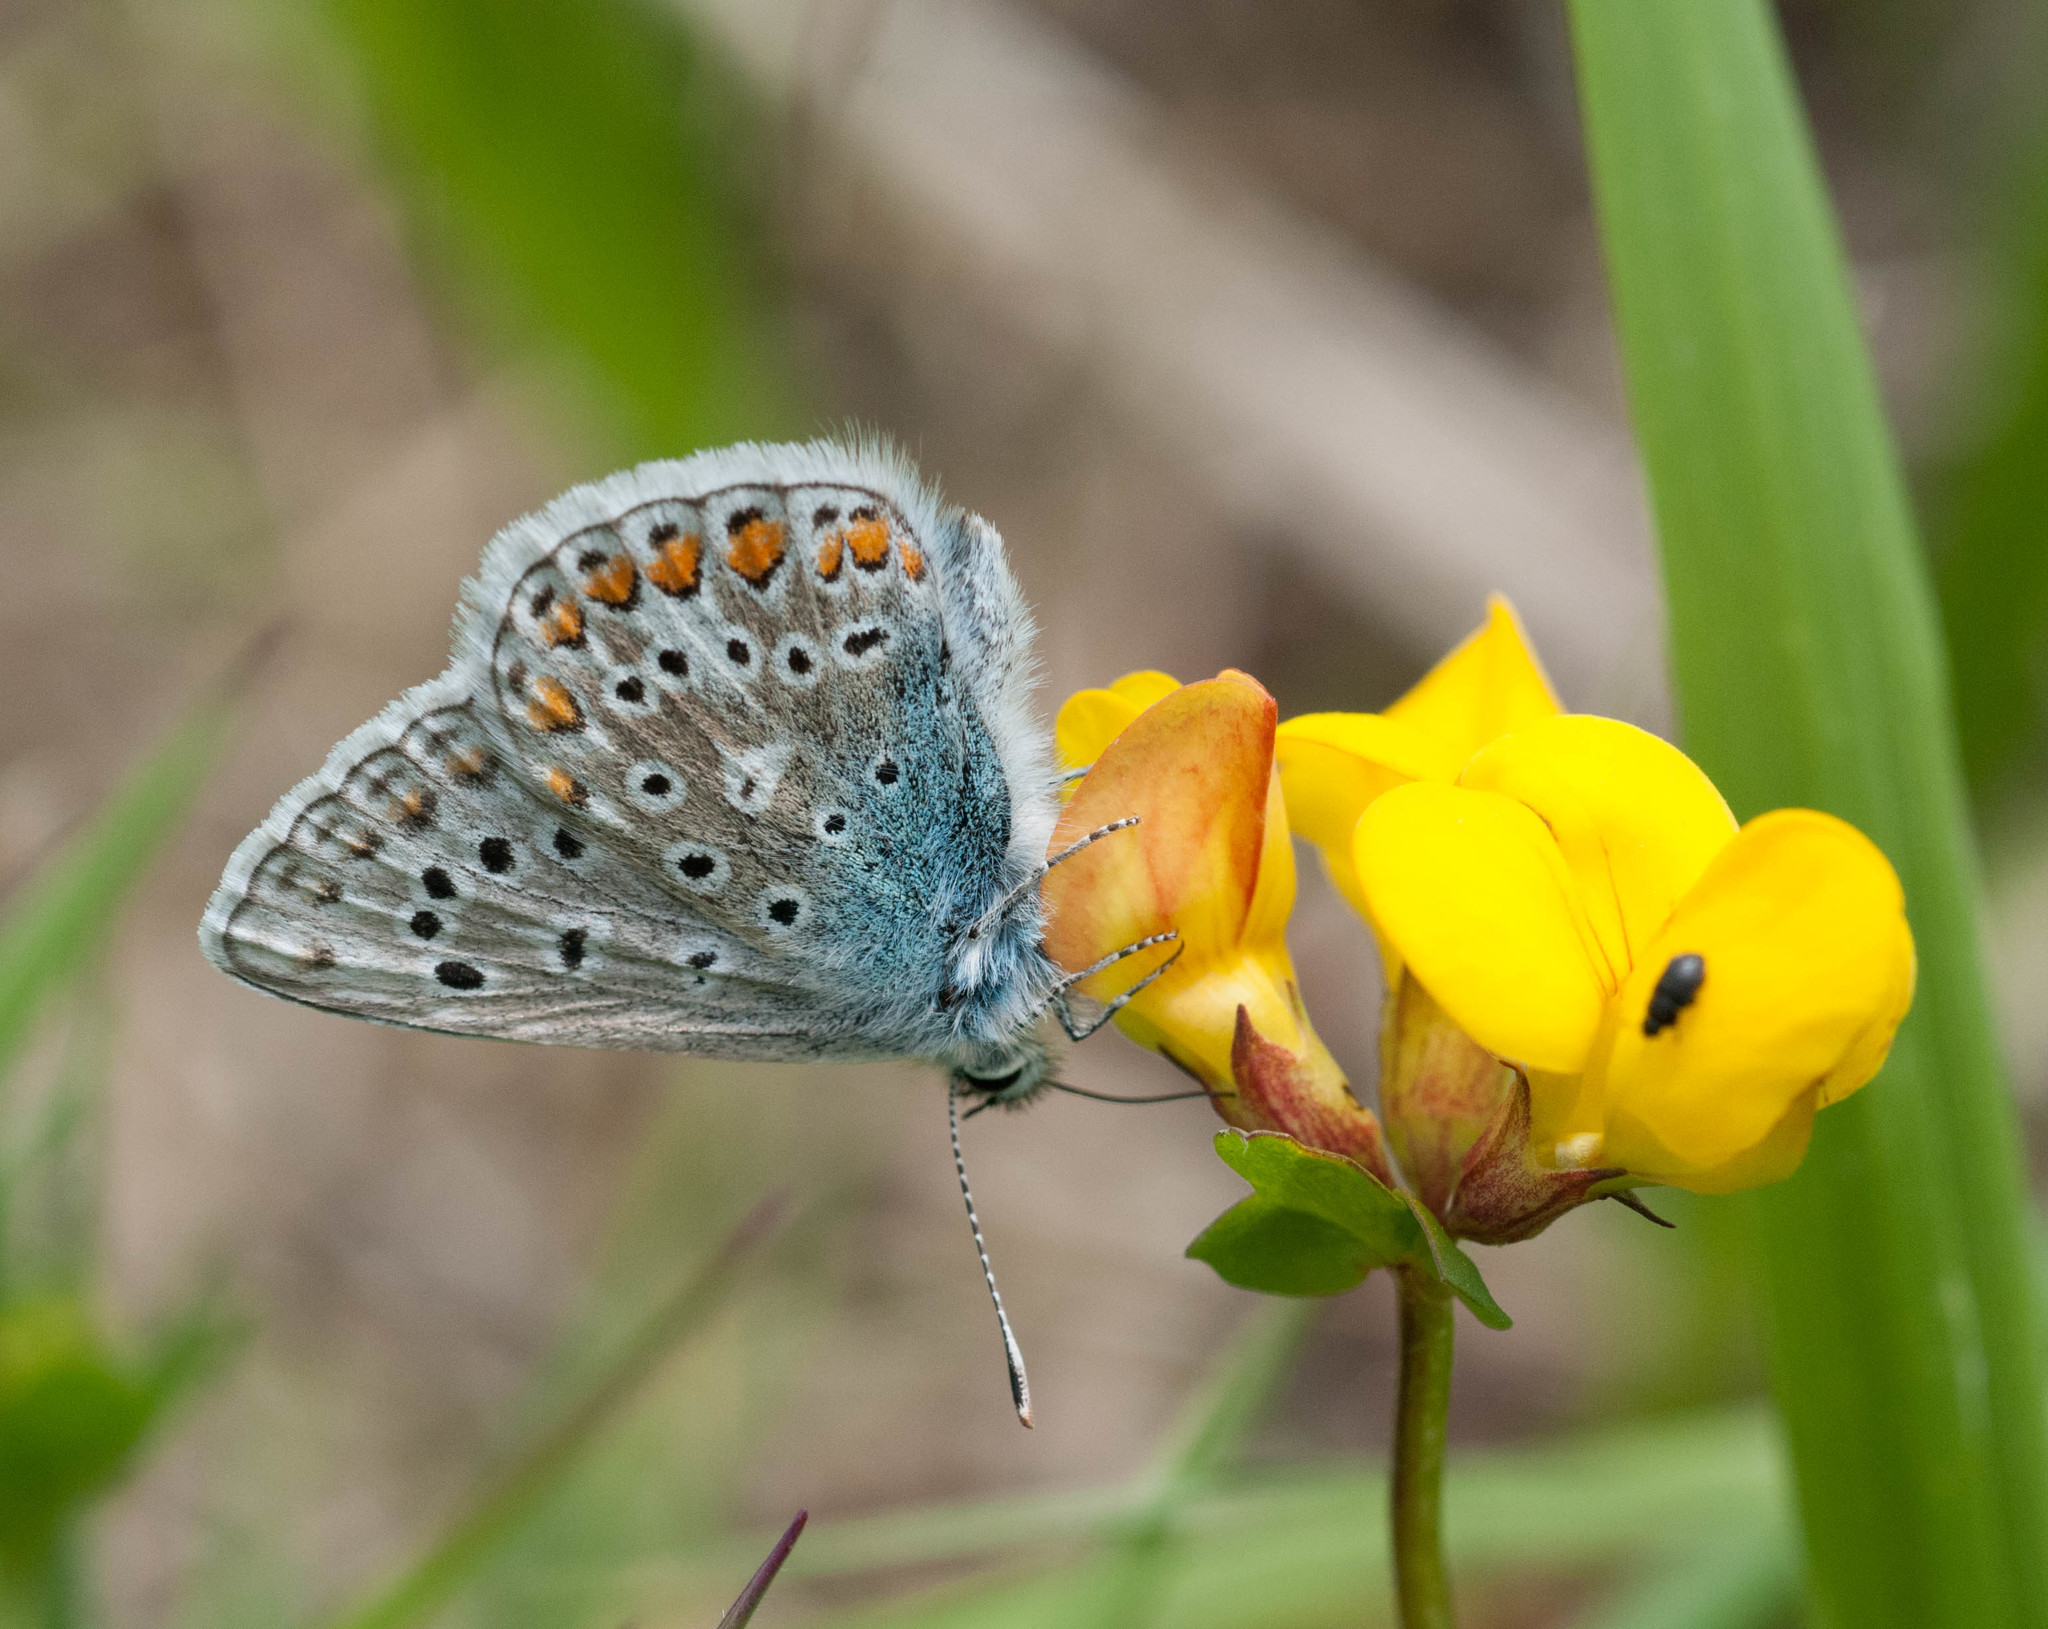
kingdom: Animalia
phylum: Arthropoda
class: Insecta
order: Lepidoptera
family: Lycaenidae
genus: Polyommatus
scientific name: Polyommatus icarus
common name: Common blue
